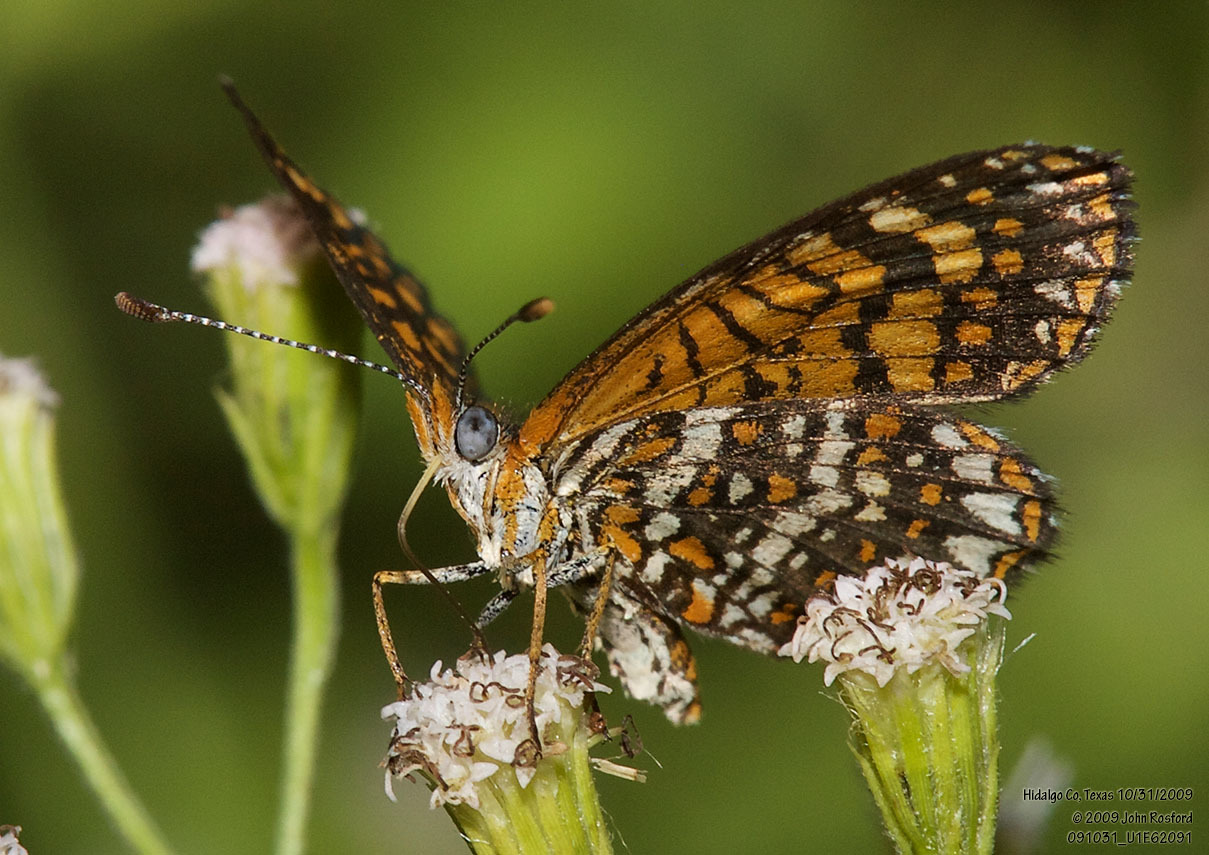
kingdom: Animalia
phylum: Arthropoda
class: Insecta
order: Lepidoptera
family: Nymphalidae
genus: Texola
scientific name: Texola elada
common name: Elada checkerspot
